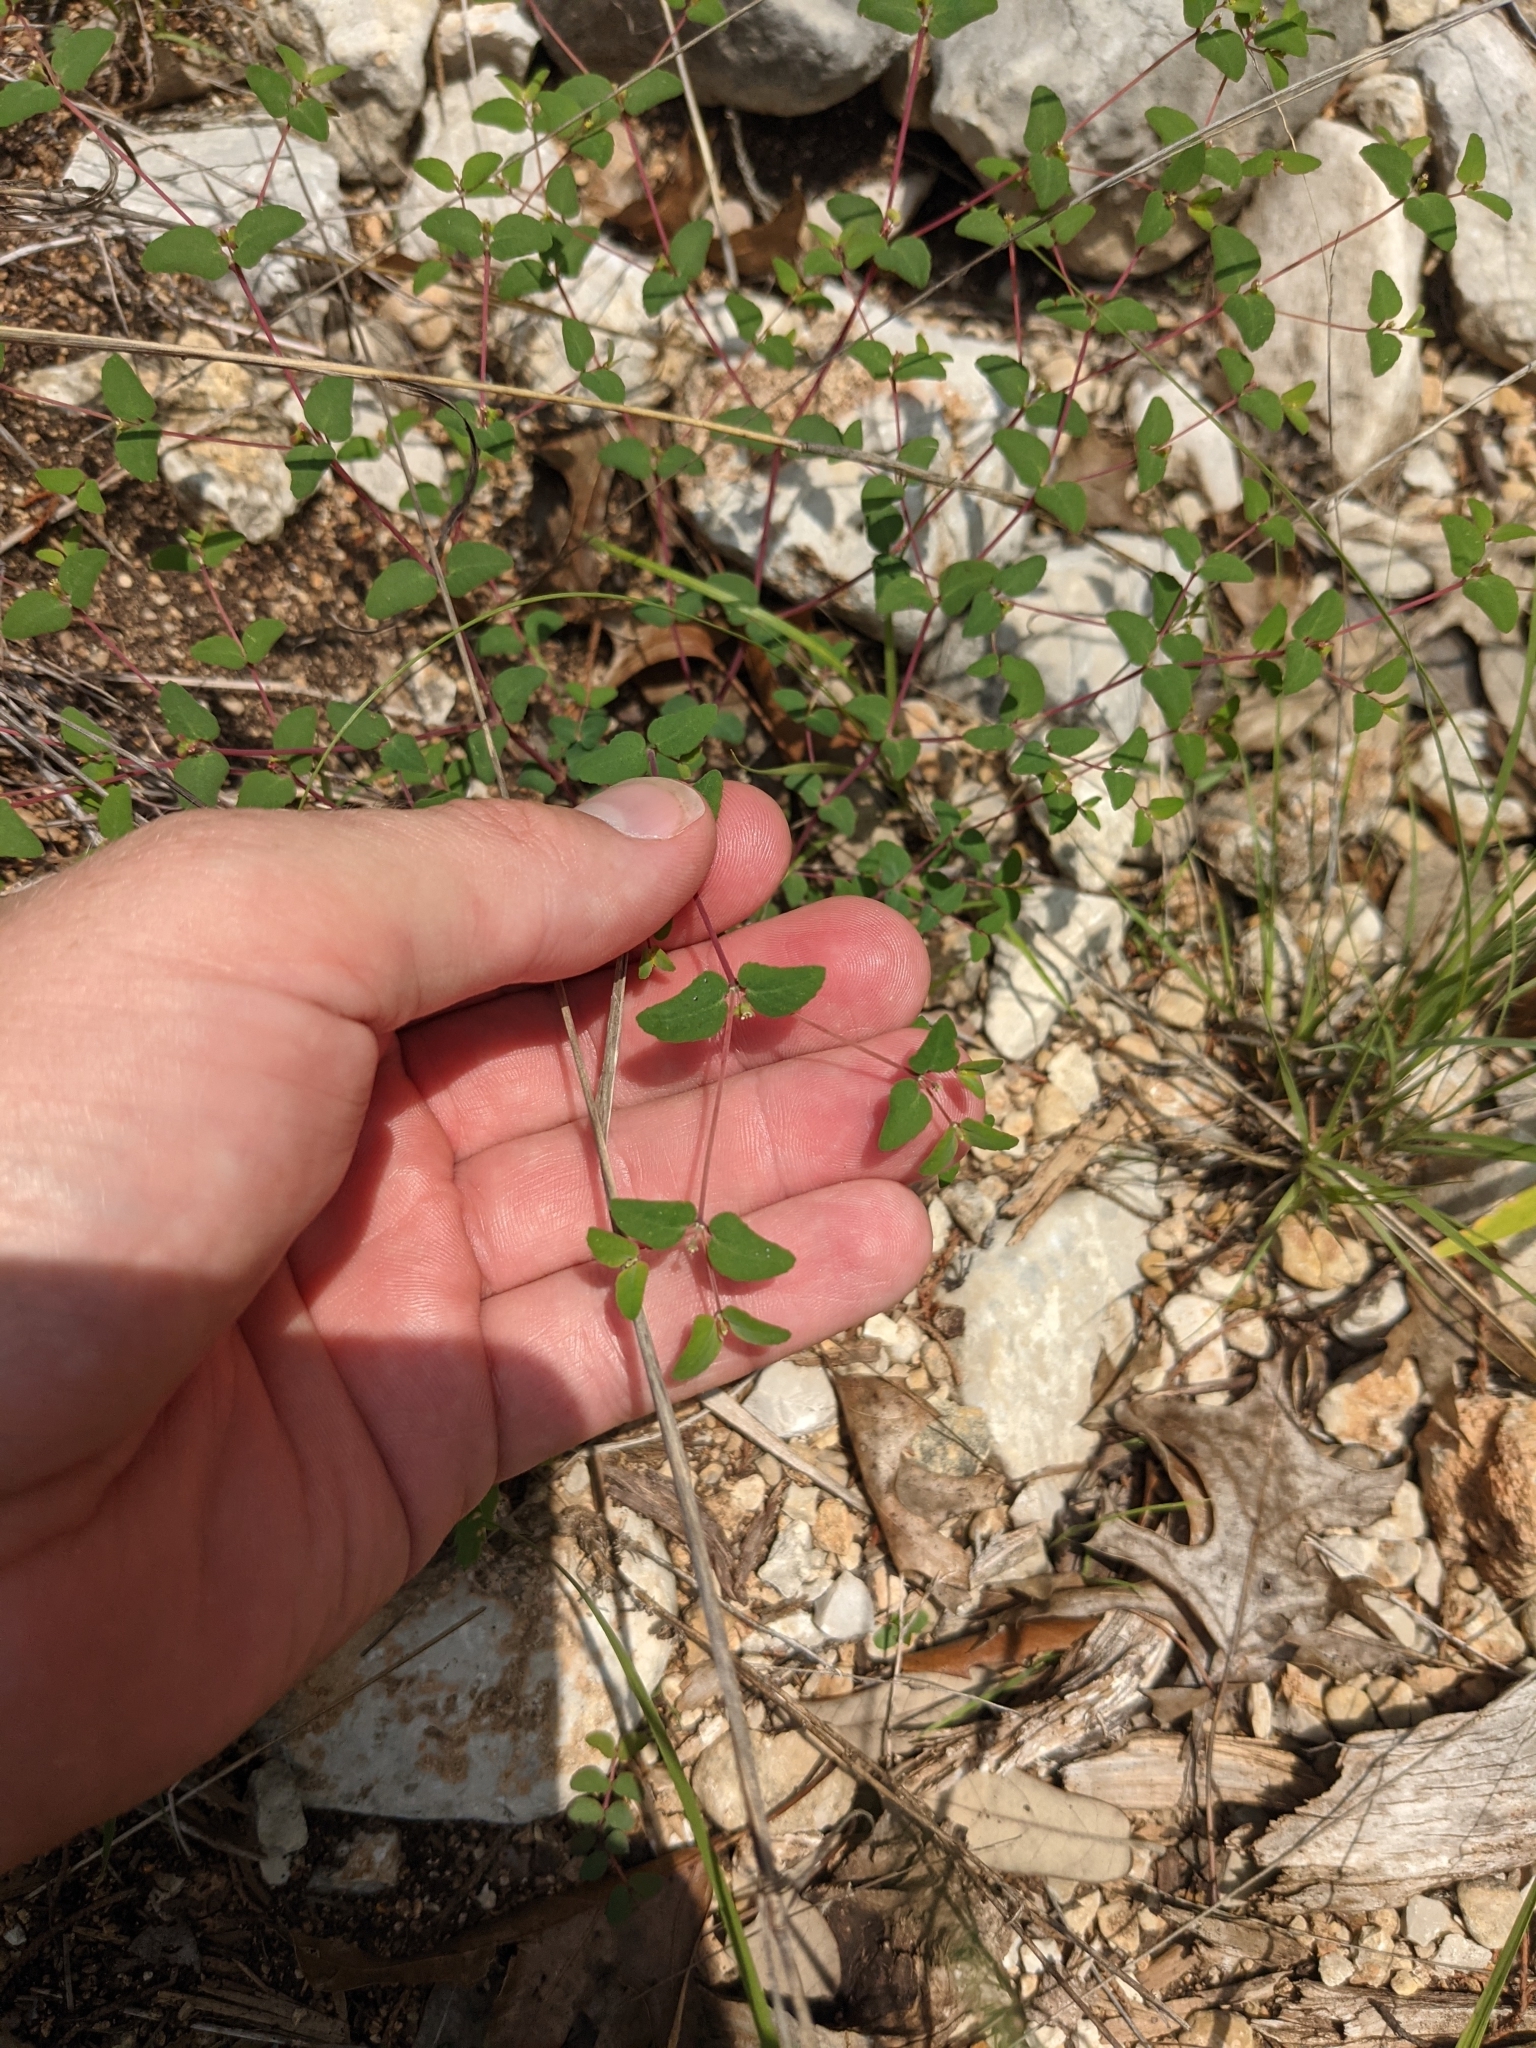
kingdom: Plantae
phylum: Tracheophyta
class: Magnoliopsida
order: Malpighiales
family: Euphorbiaceae
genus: Euphorbia
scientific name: Euphorbia villifera
